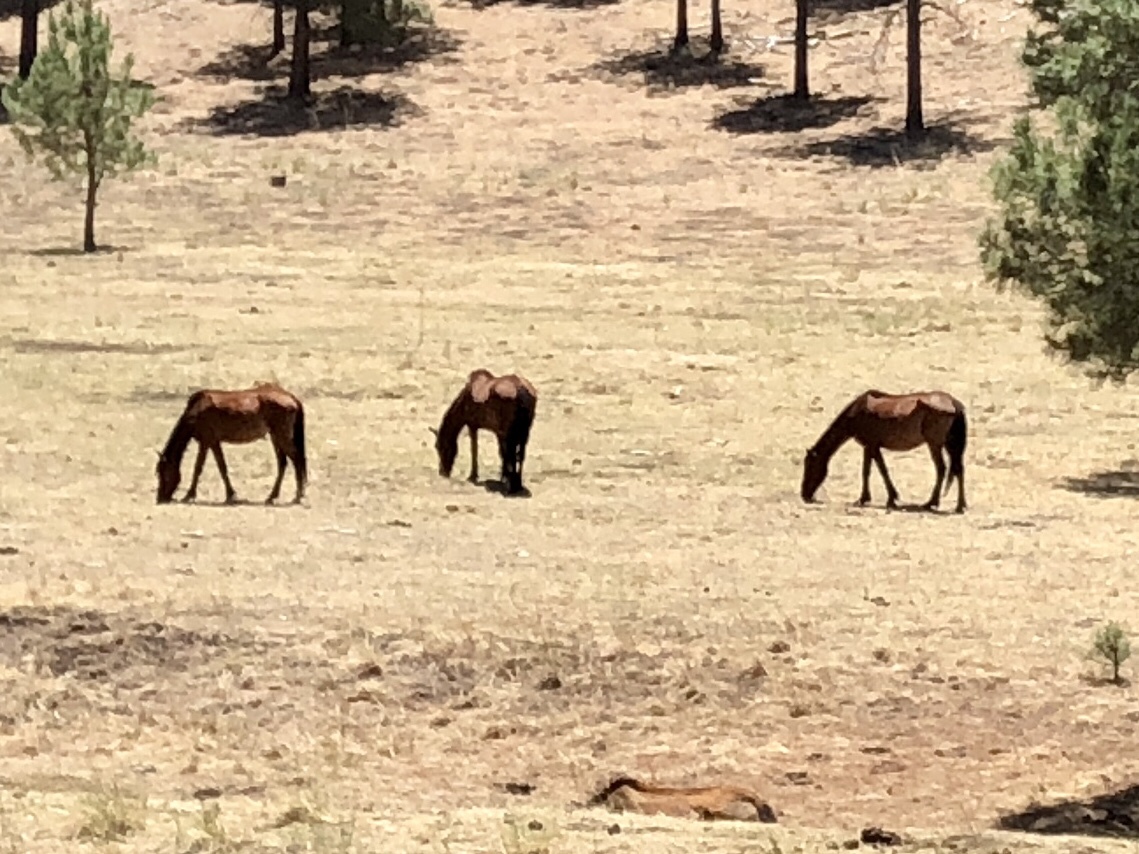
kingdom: Animalia
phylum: Chordata
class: Mammalia
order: Perissodactyla
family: Equidae
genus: Equus
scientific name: Equus caballus
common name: Horse
